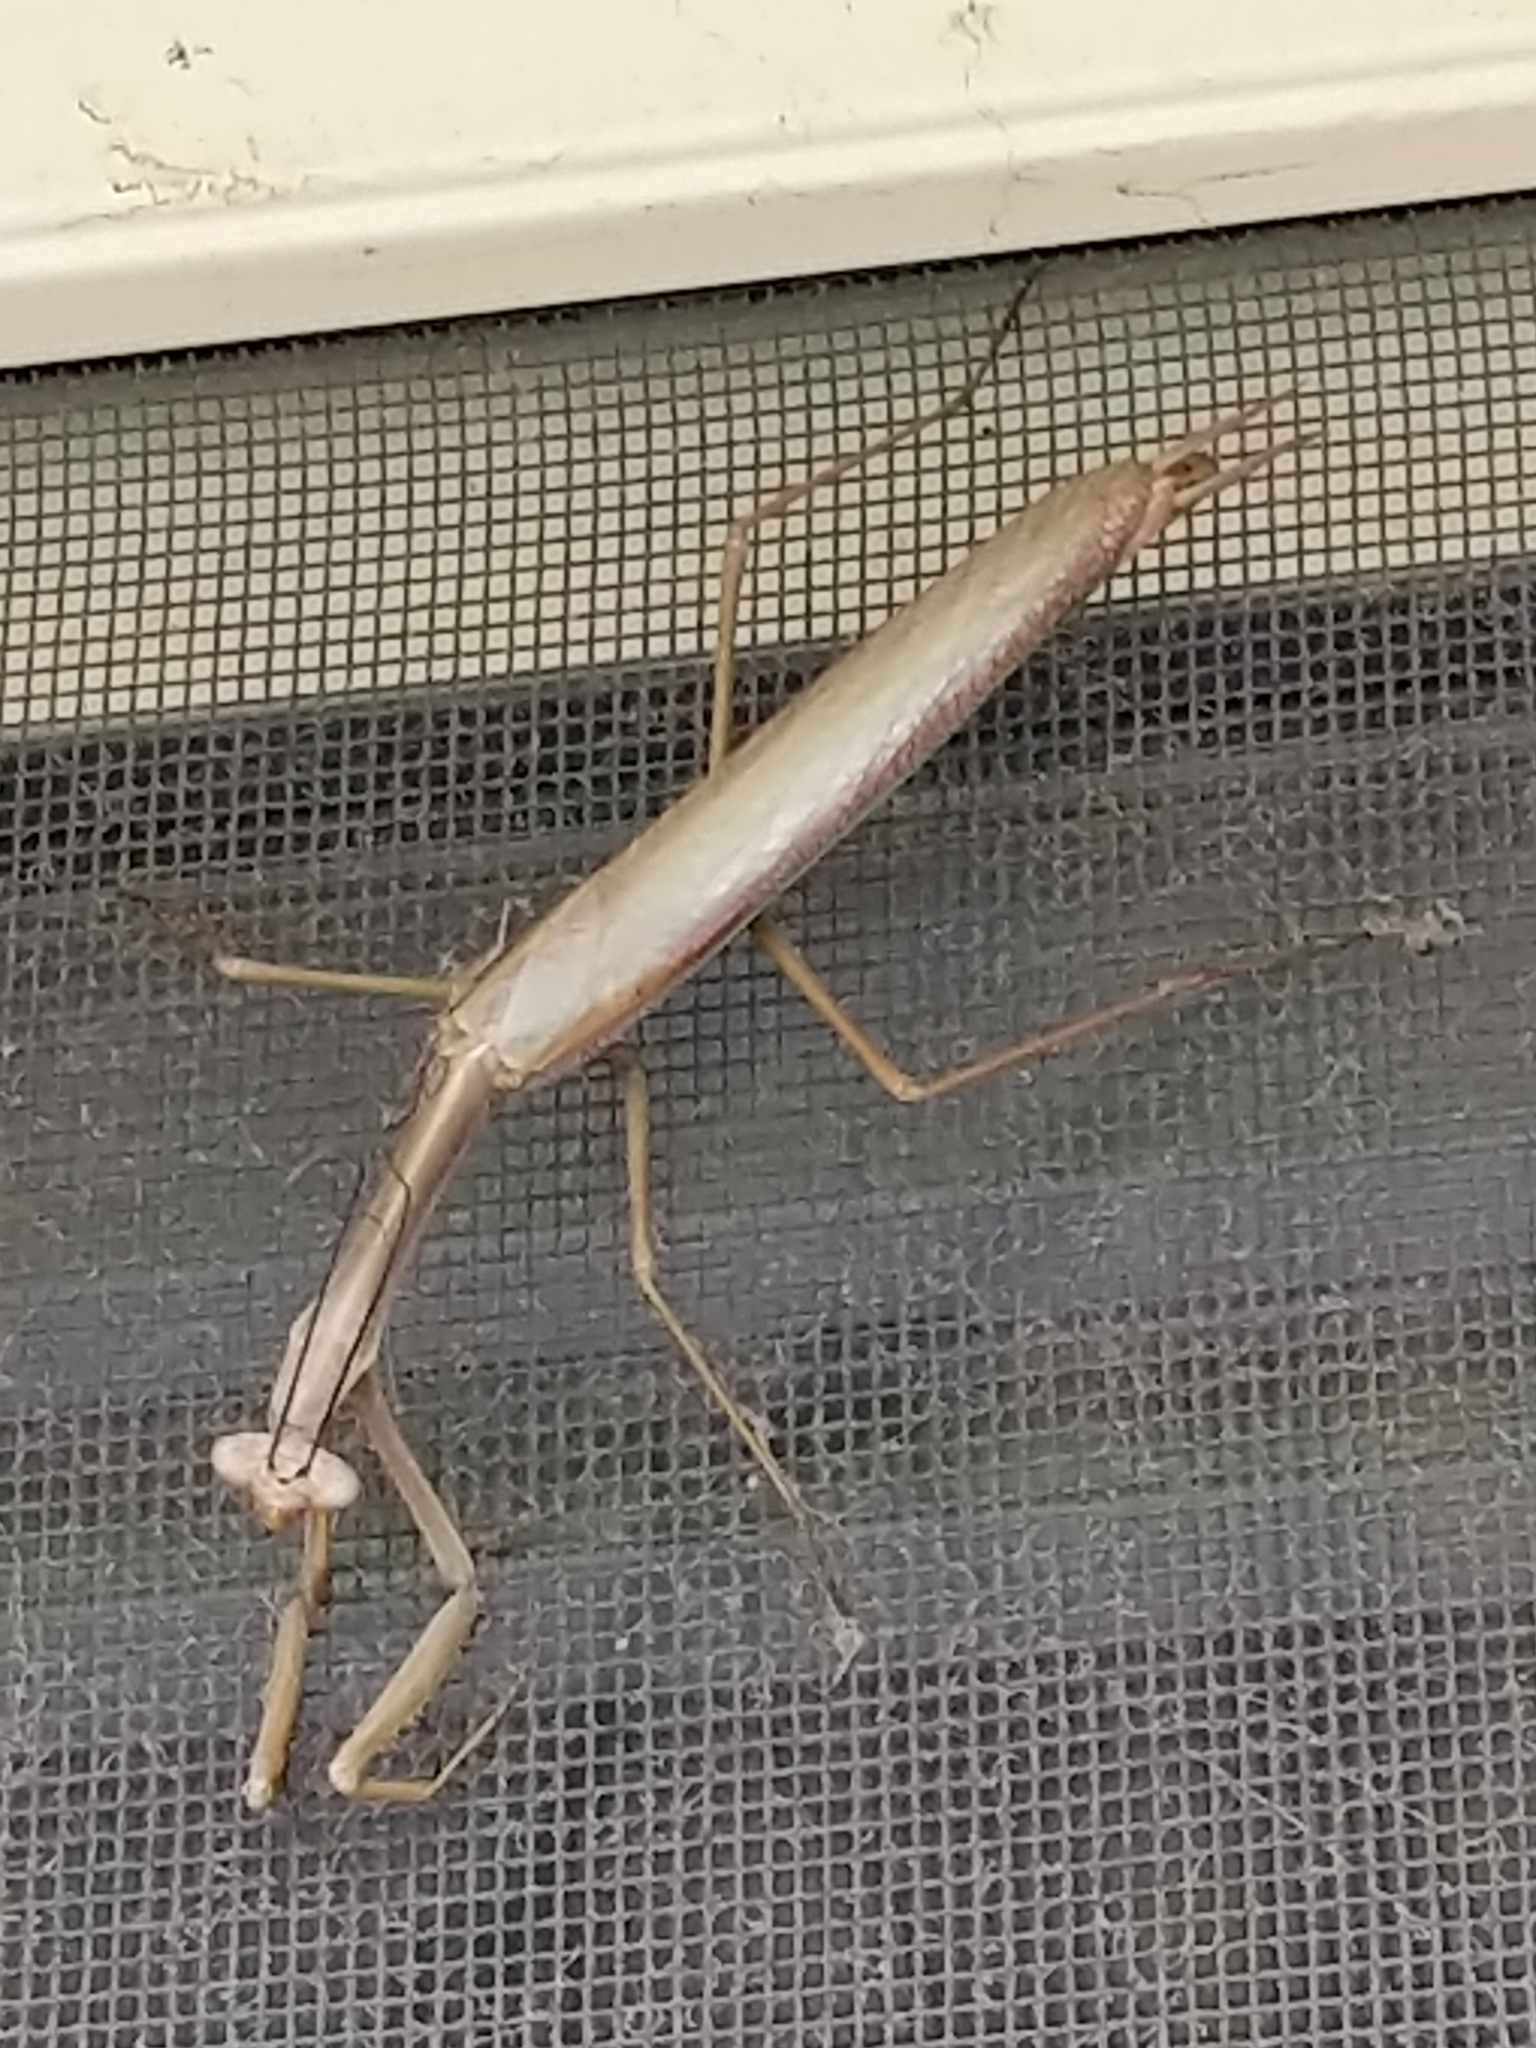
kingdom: Animalia
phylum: Arthropoda
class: Insecta
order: Mantodea
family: Mantidae
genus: Archimantis
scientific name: Archimantis sobrina
